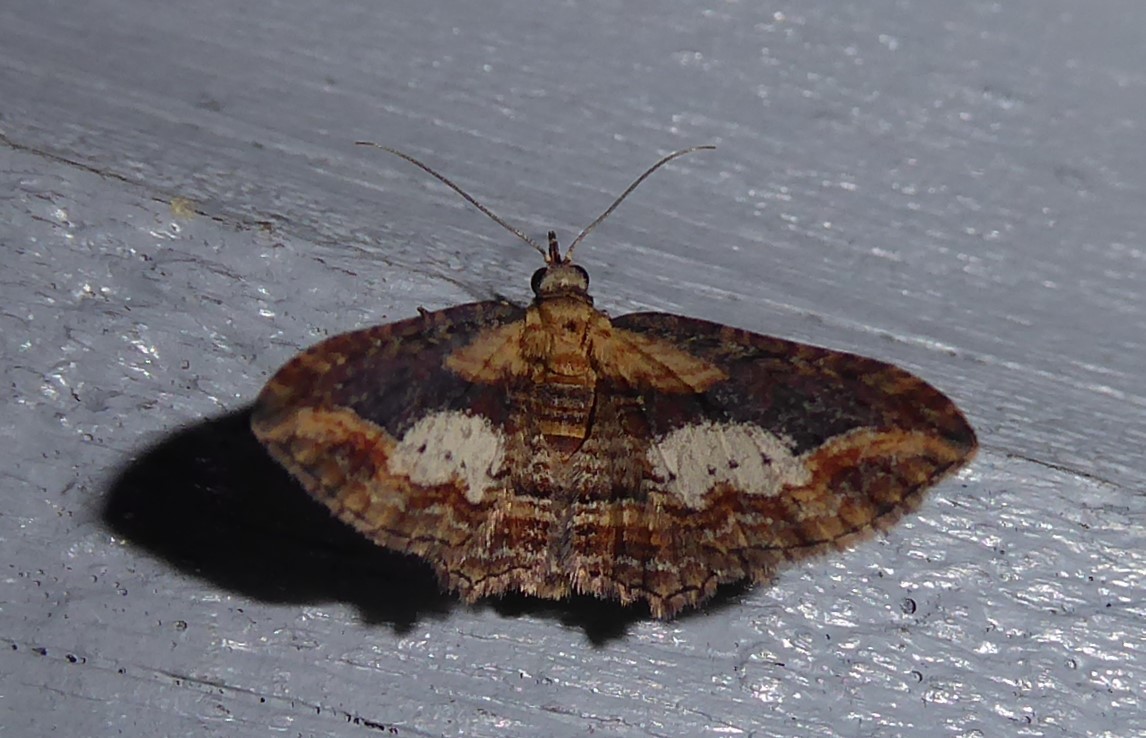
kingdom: Animalia
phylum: Arthropoda
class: Insecta
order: Lepidoptera
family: Geometridae
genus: Chloroclystis
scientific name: Chloroclystis filata
